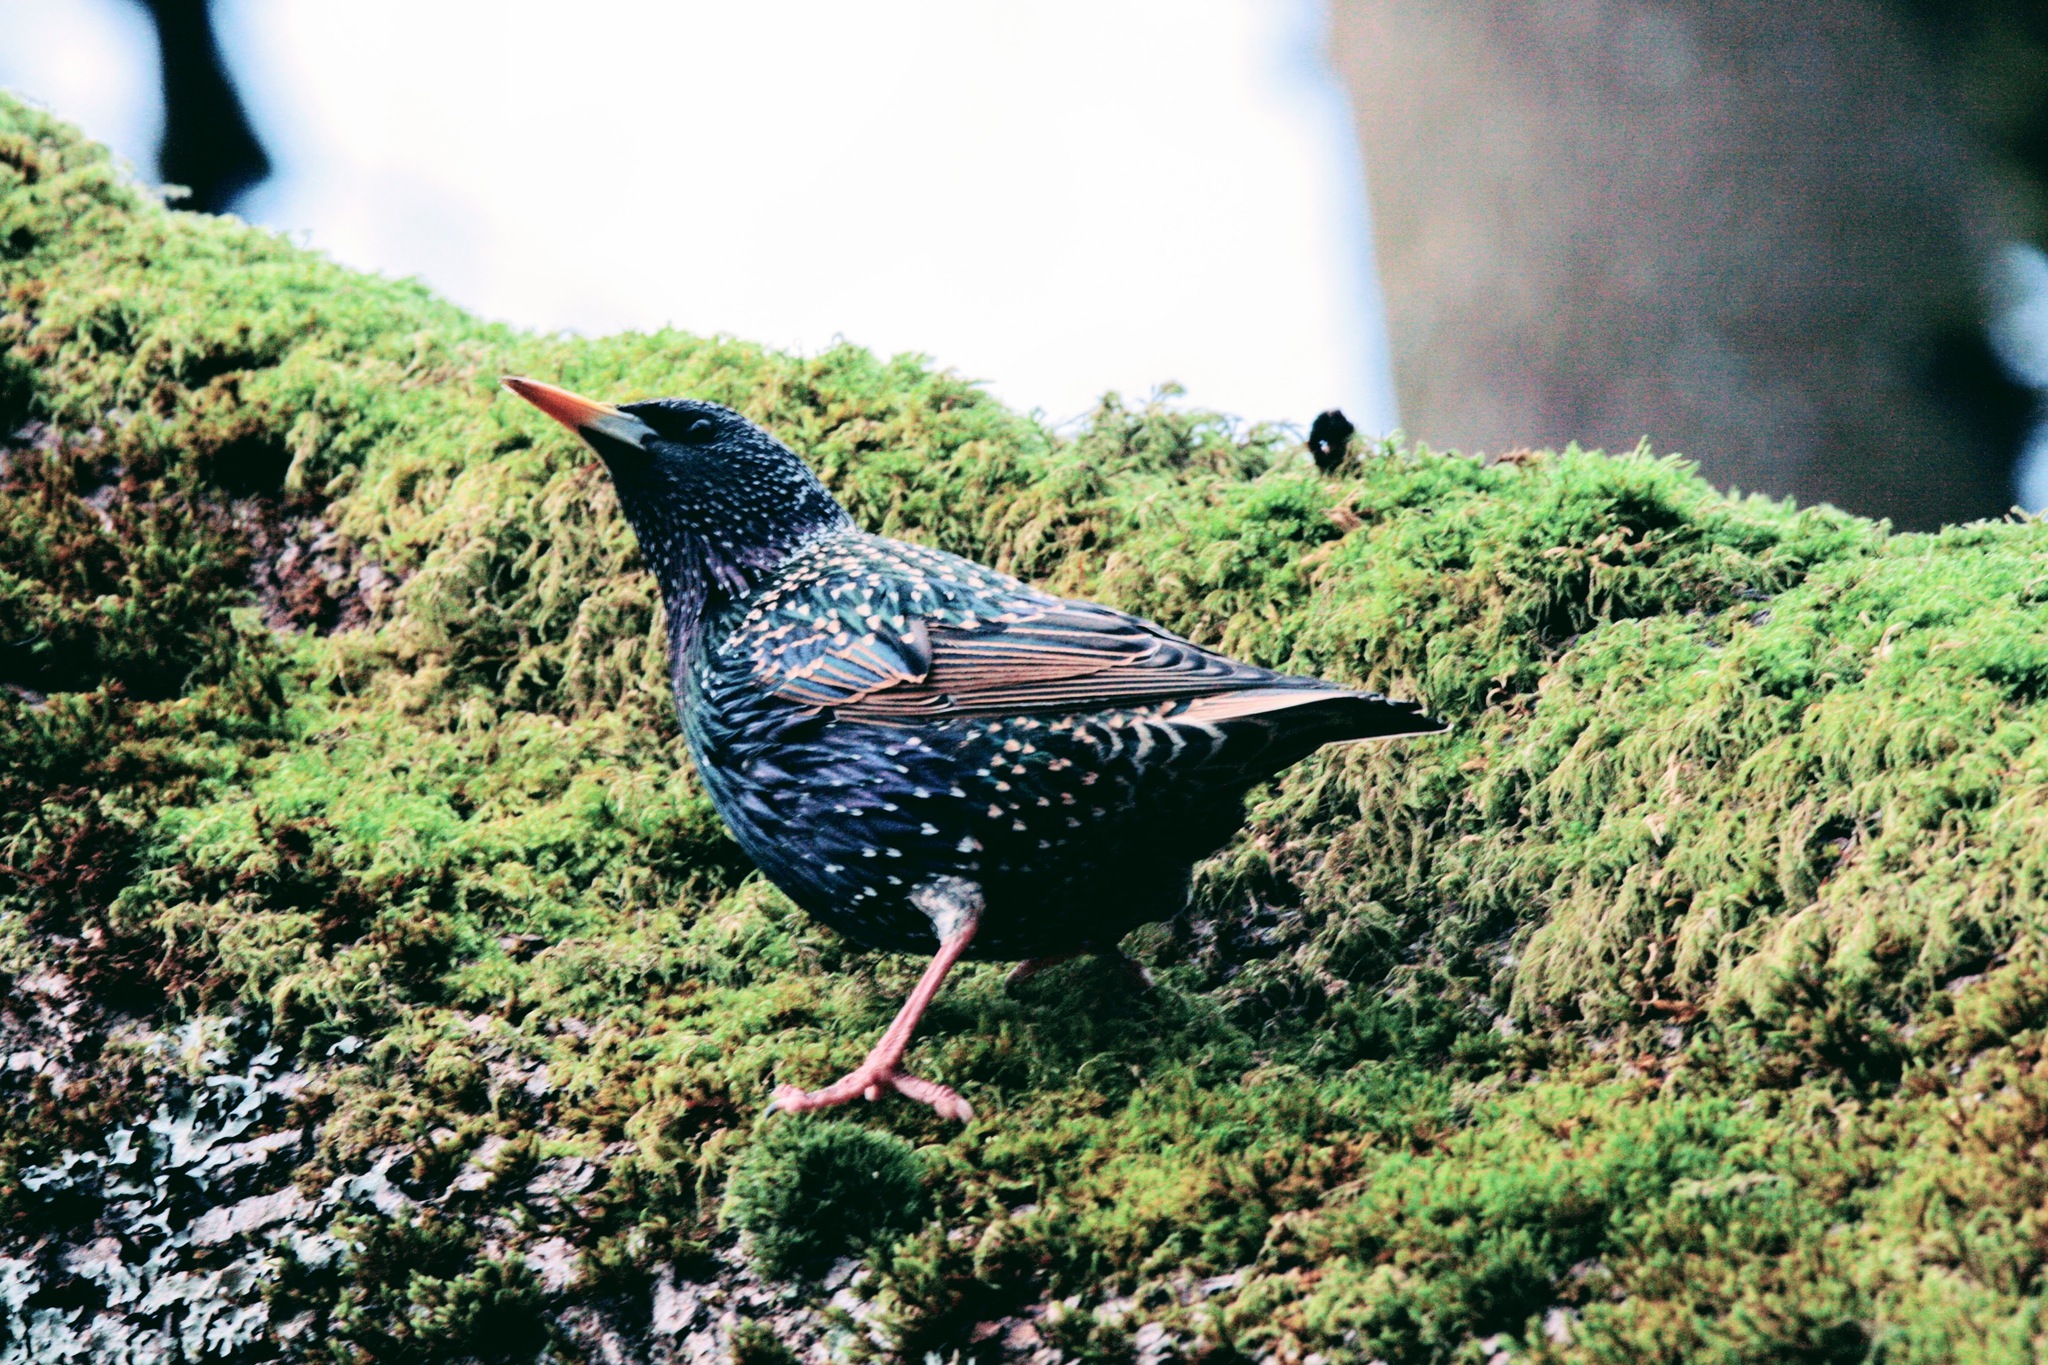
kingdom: Animalia
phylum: Chordata
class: Aves
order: Passeriformes
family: Sturnidae
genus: Sturnus
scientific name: Sturnus vulgaris
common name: Common starling
